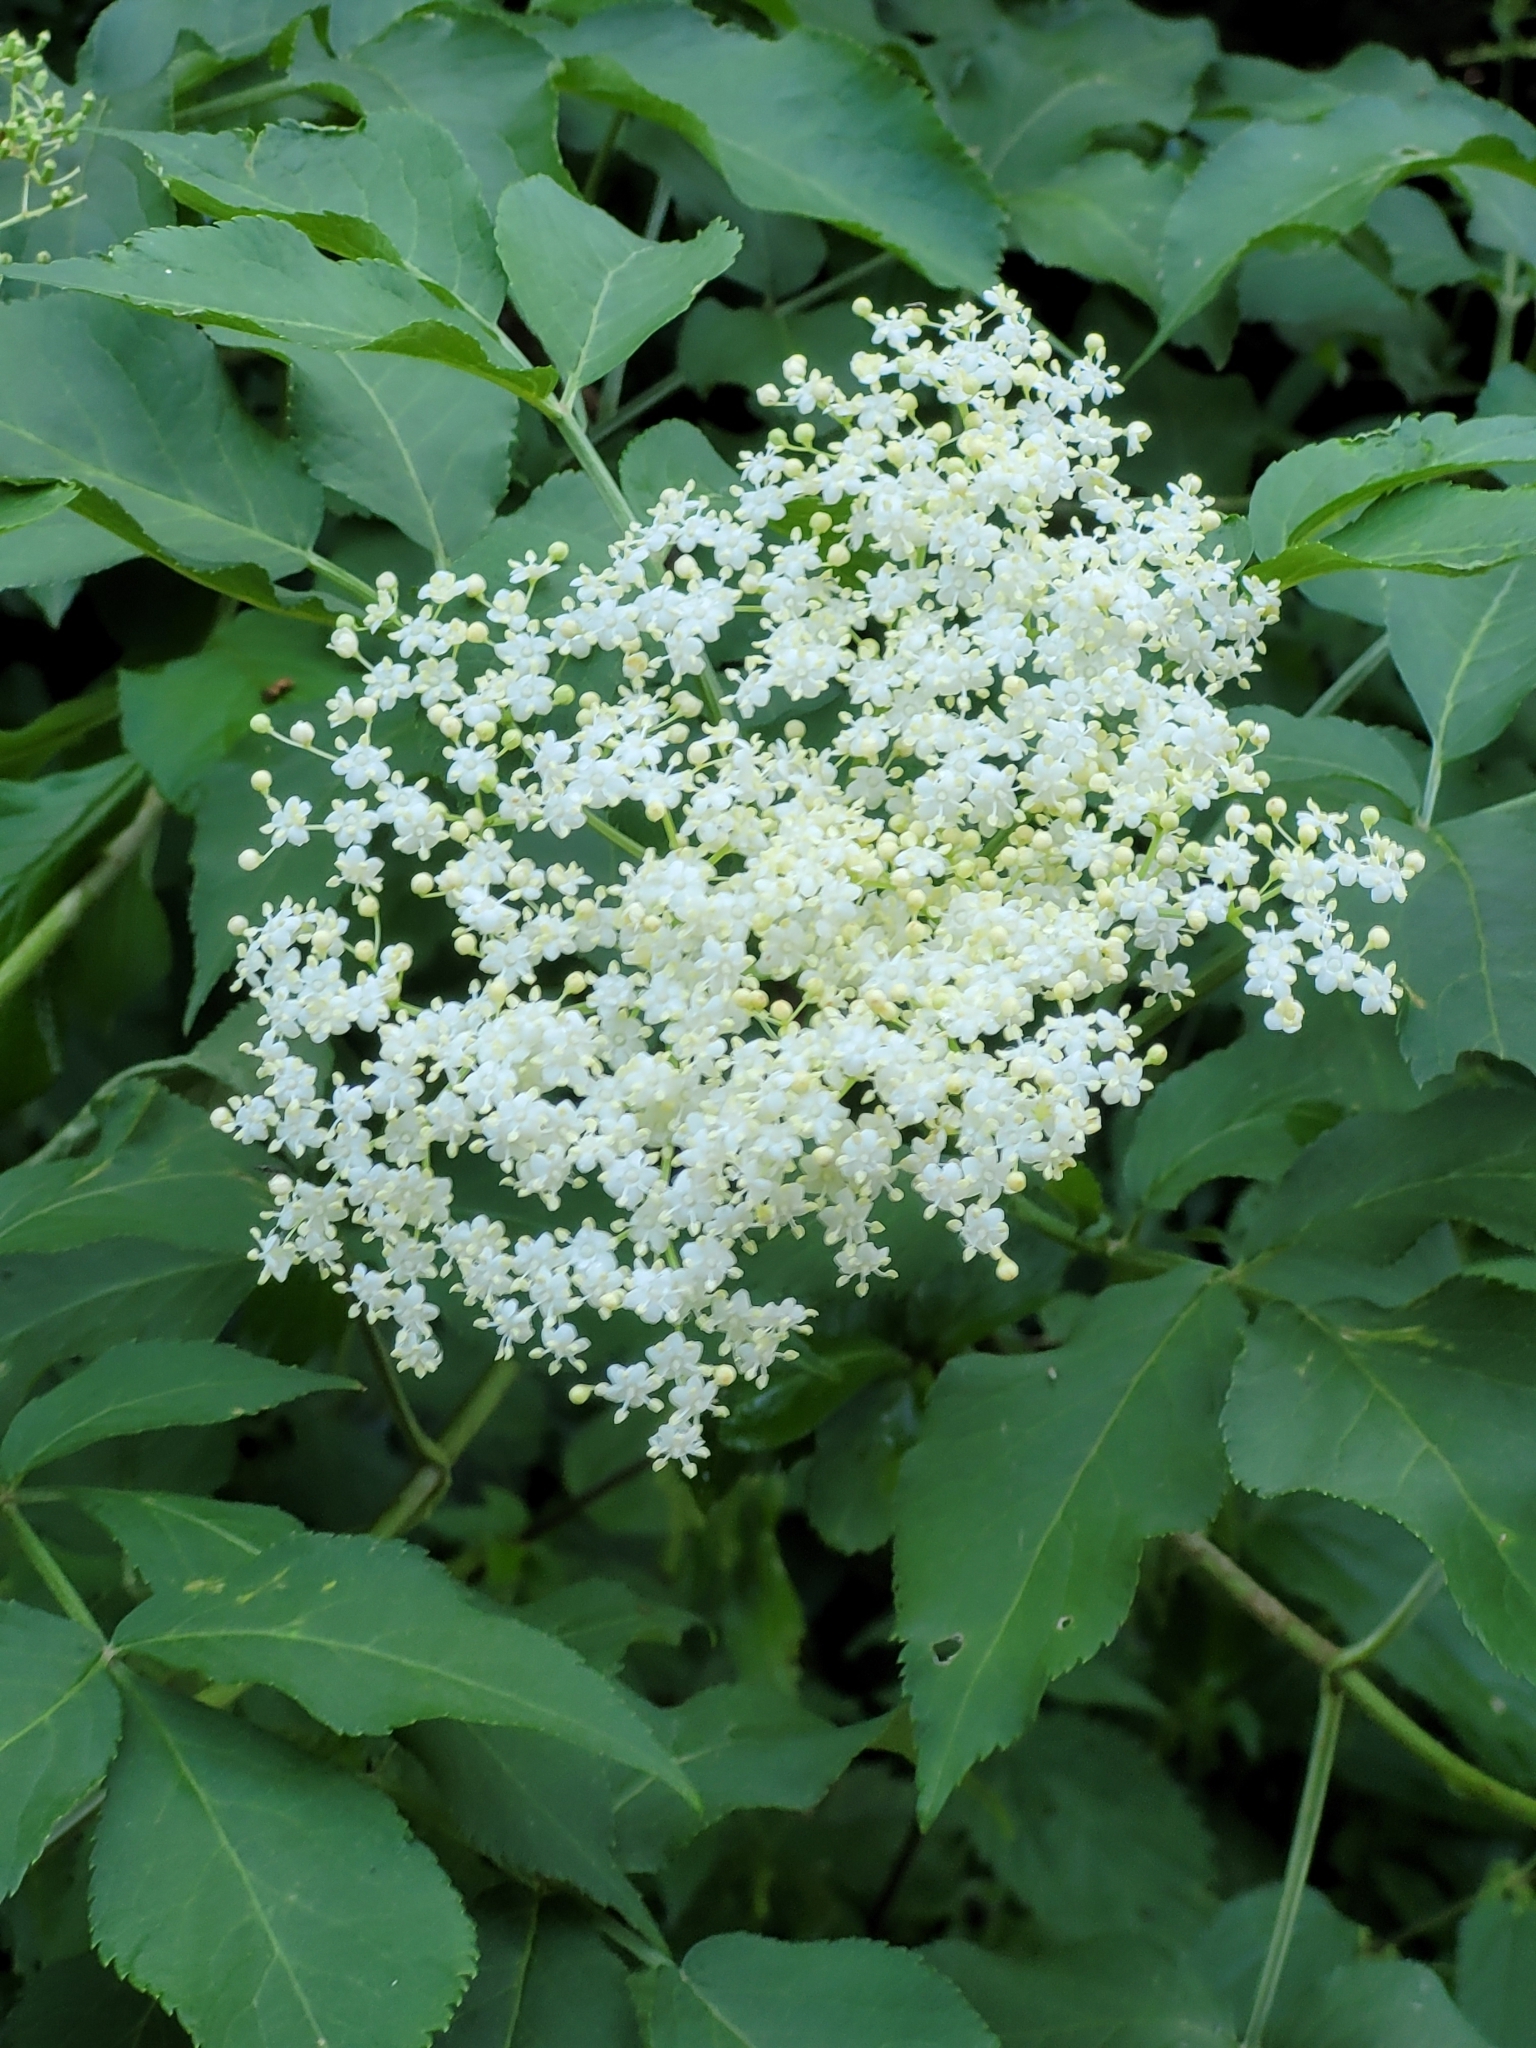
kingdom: Plantae
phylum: Tracheophyta
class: Magnoliopsida
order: Dipsacales
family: Viburnaceae
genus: Sambucus
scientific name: Sambucus nigra
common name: Elder
